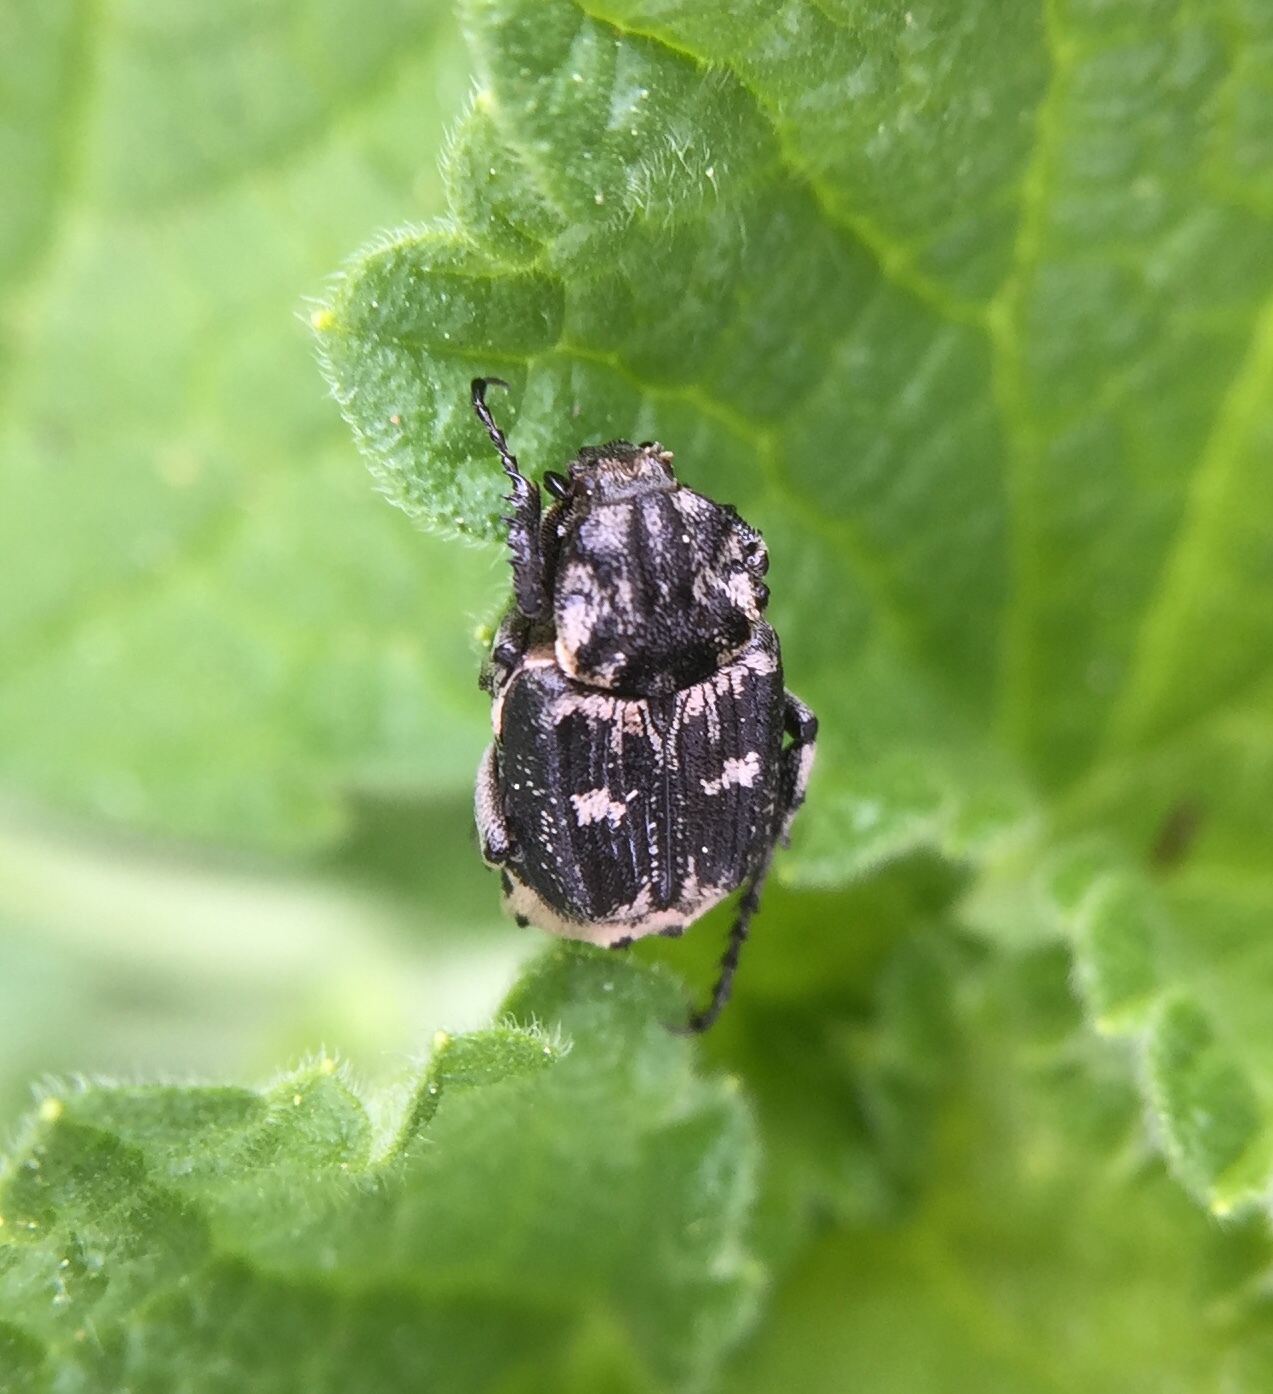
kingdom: Animalia
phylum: Arthropoda
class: Insecta
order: Coleoptera
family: Scarabaeidae
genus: Valgus
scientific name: Valgus hemipterus
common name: Bug flower chafer
